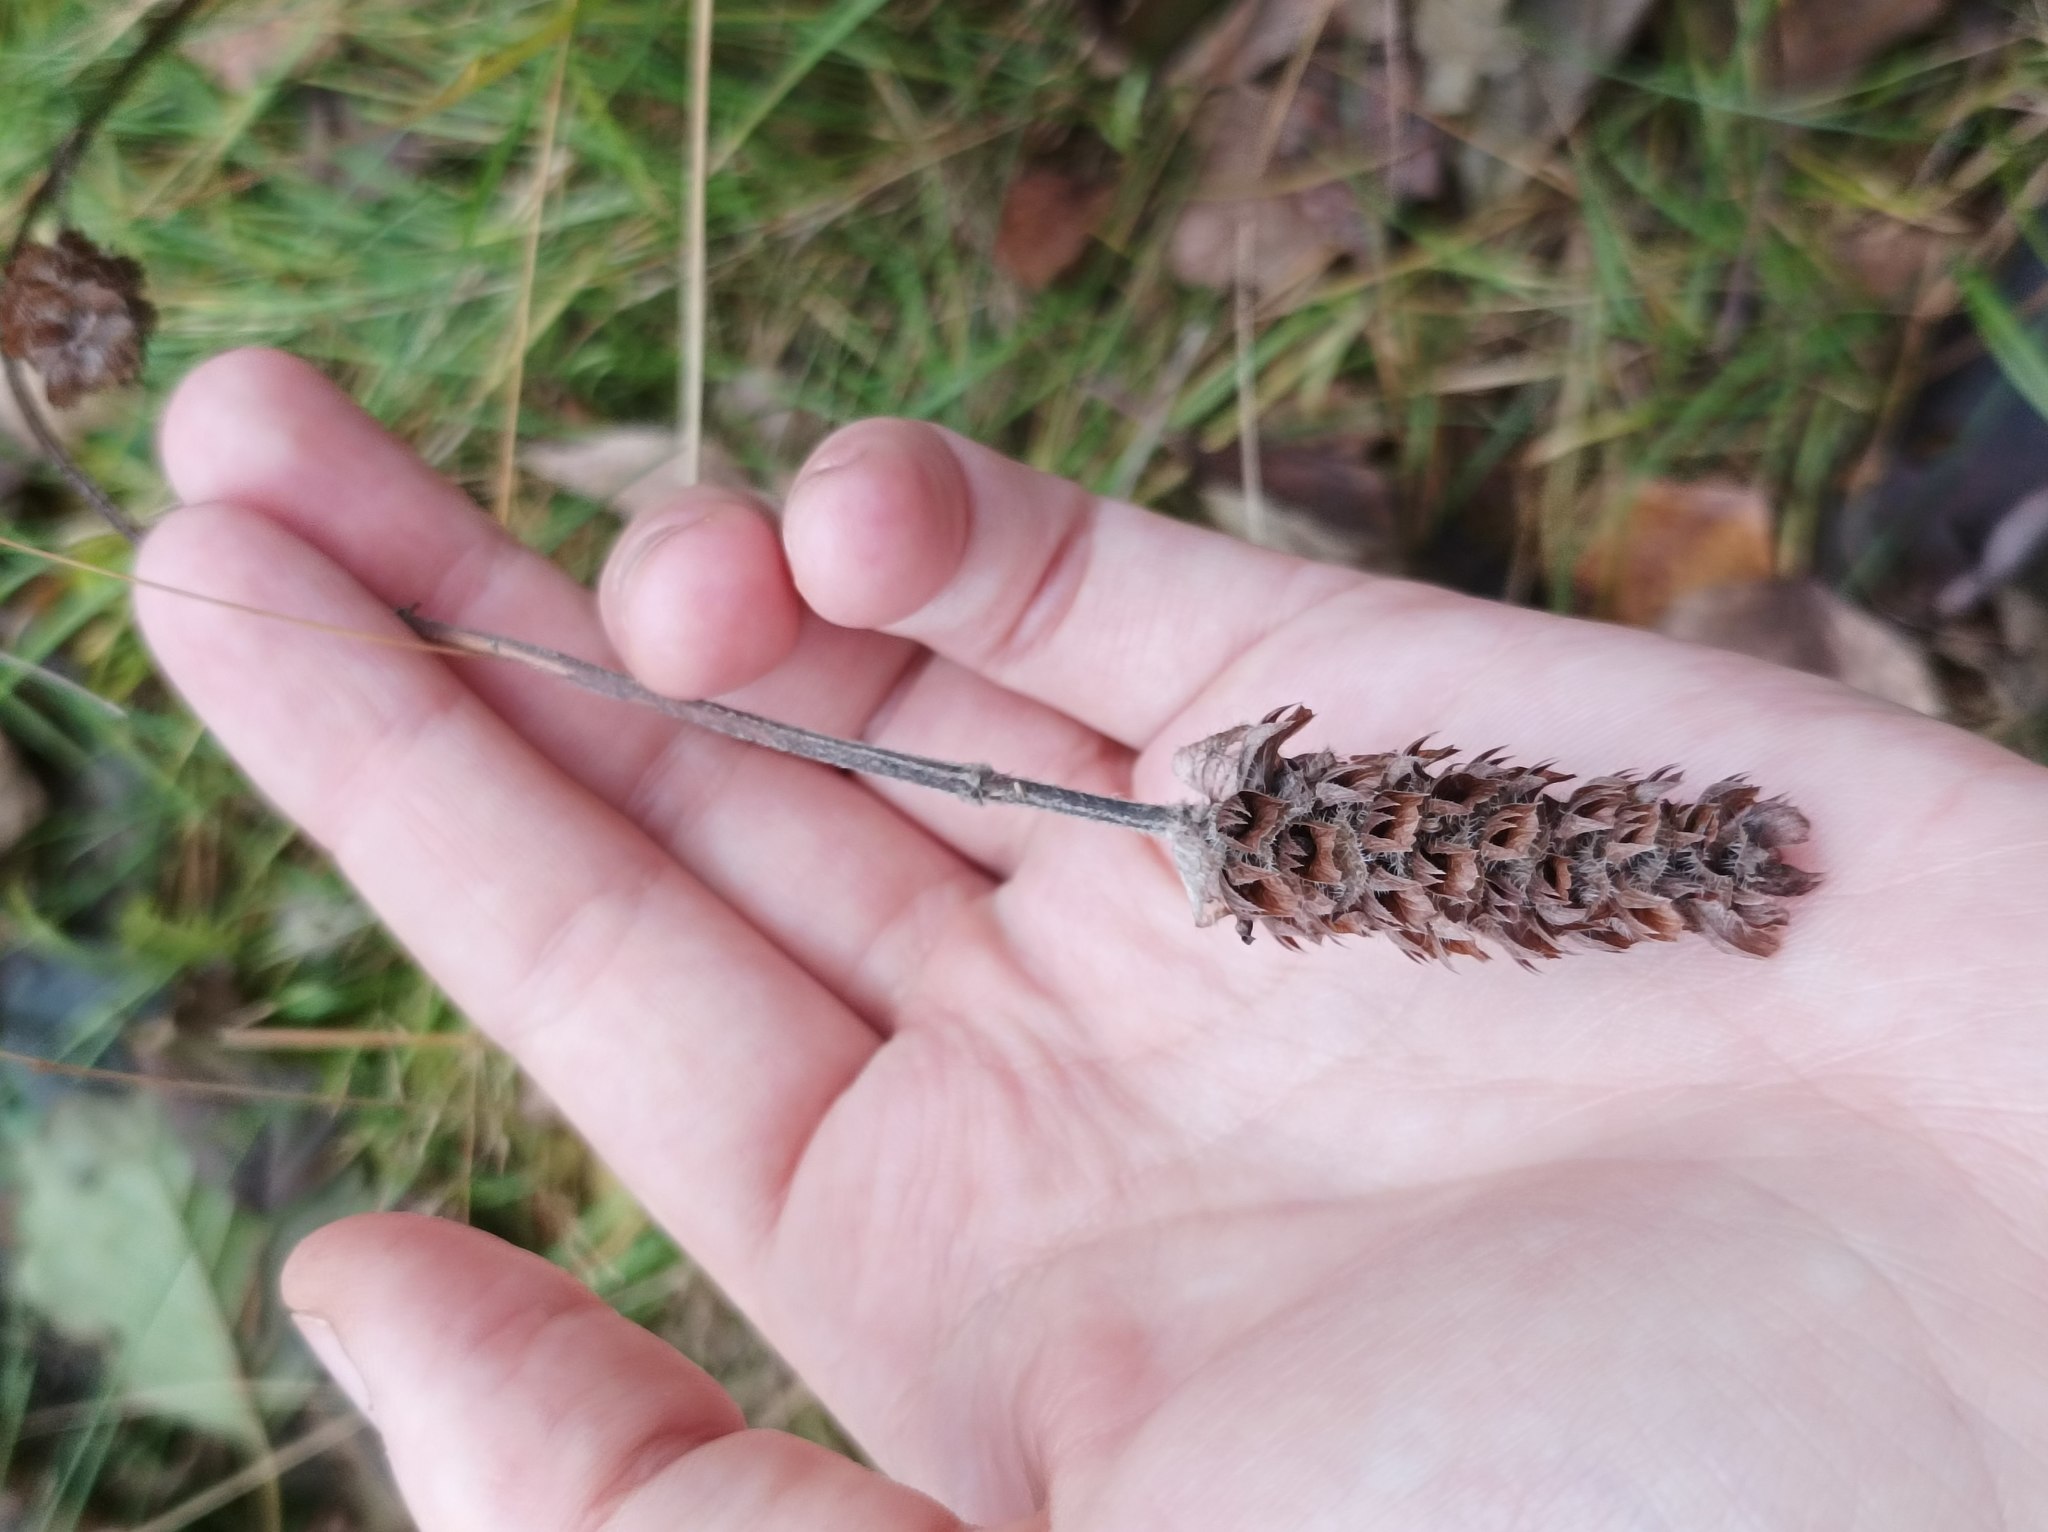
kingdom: Plantae
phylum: Tracheophyta
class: Magnoliopsida
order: Lamiales
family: Lamiaceae
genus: Prunella
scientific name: Prunella vulgaris
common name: Heal-all
